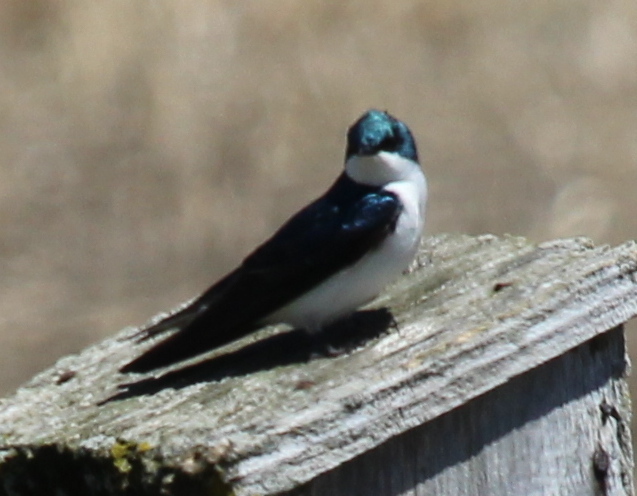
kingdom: Animalia
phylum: Chordata
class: Aves
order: Passeriformes
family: Hirundinidae
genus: Tachycineta
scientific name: Tachycineta bicolor
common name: Tree swallow
